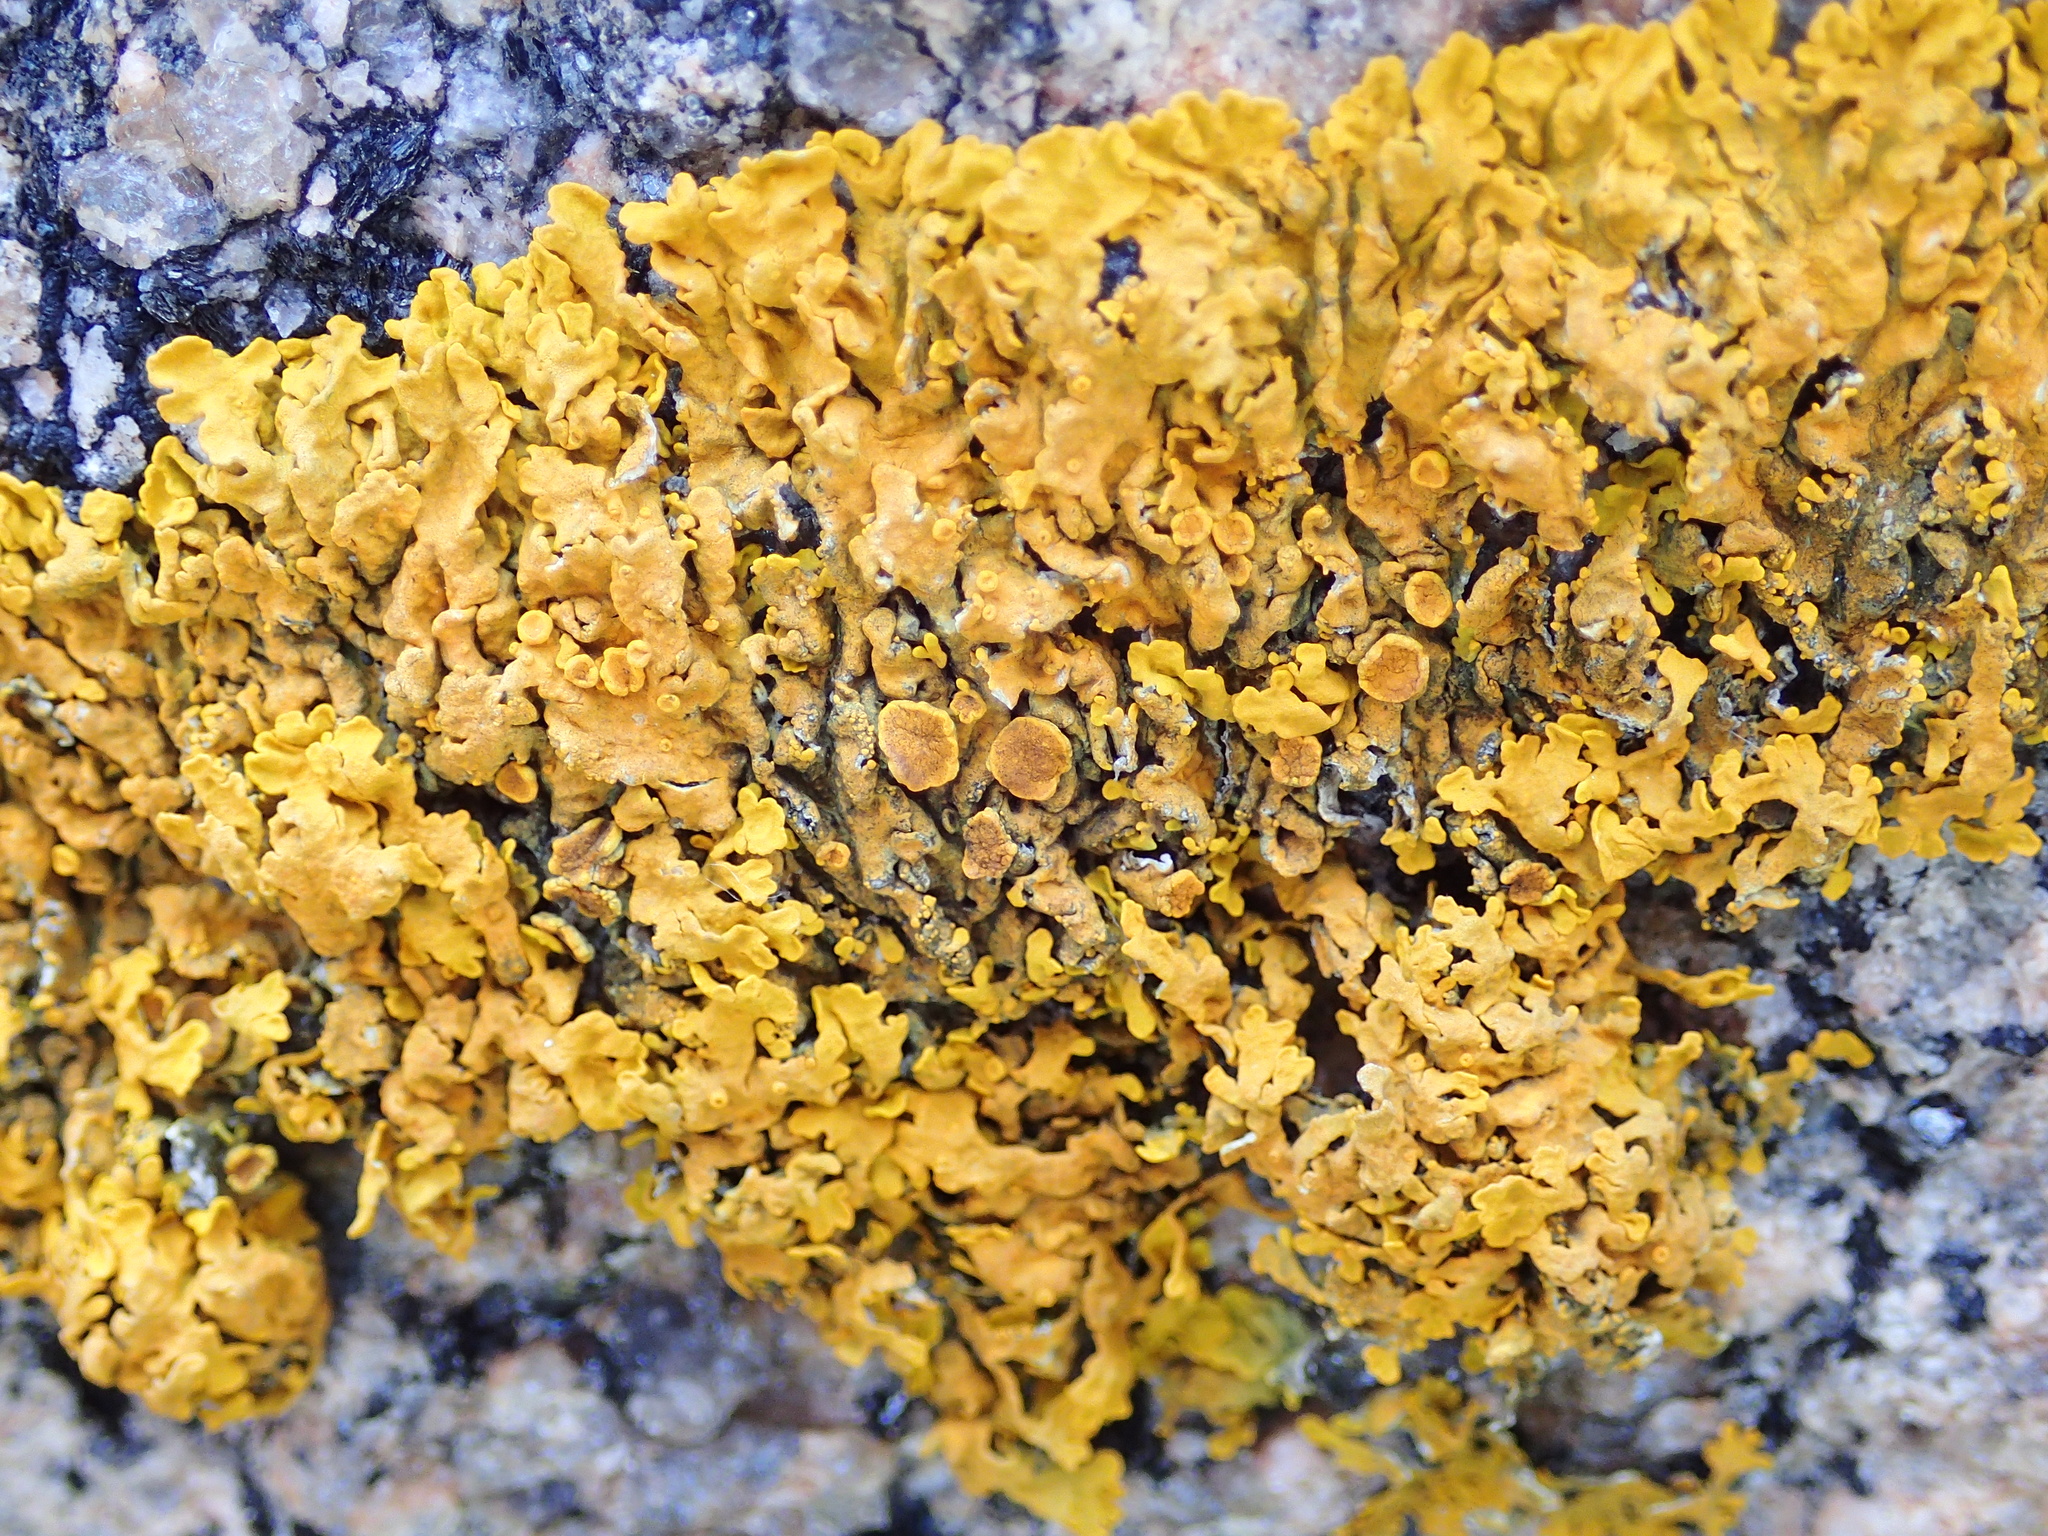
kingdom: Fungi
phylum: Ascomycota
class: Lecanoromycetes
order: Teloschistales
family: Teloschistaceae
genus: Xanthoria
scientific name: Xanthoria parietina
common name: Common orange lichen
